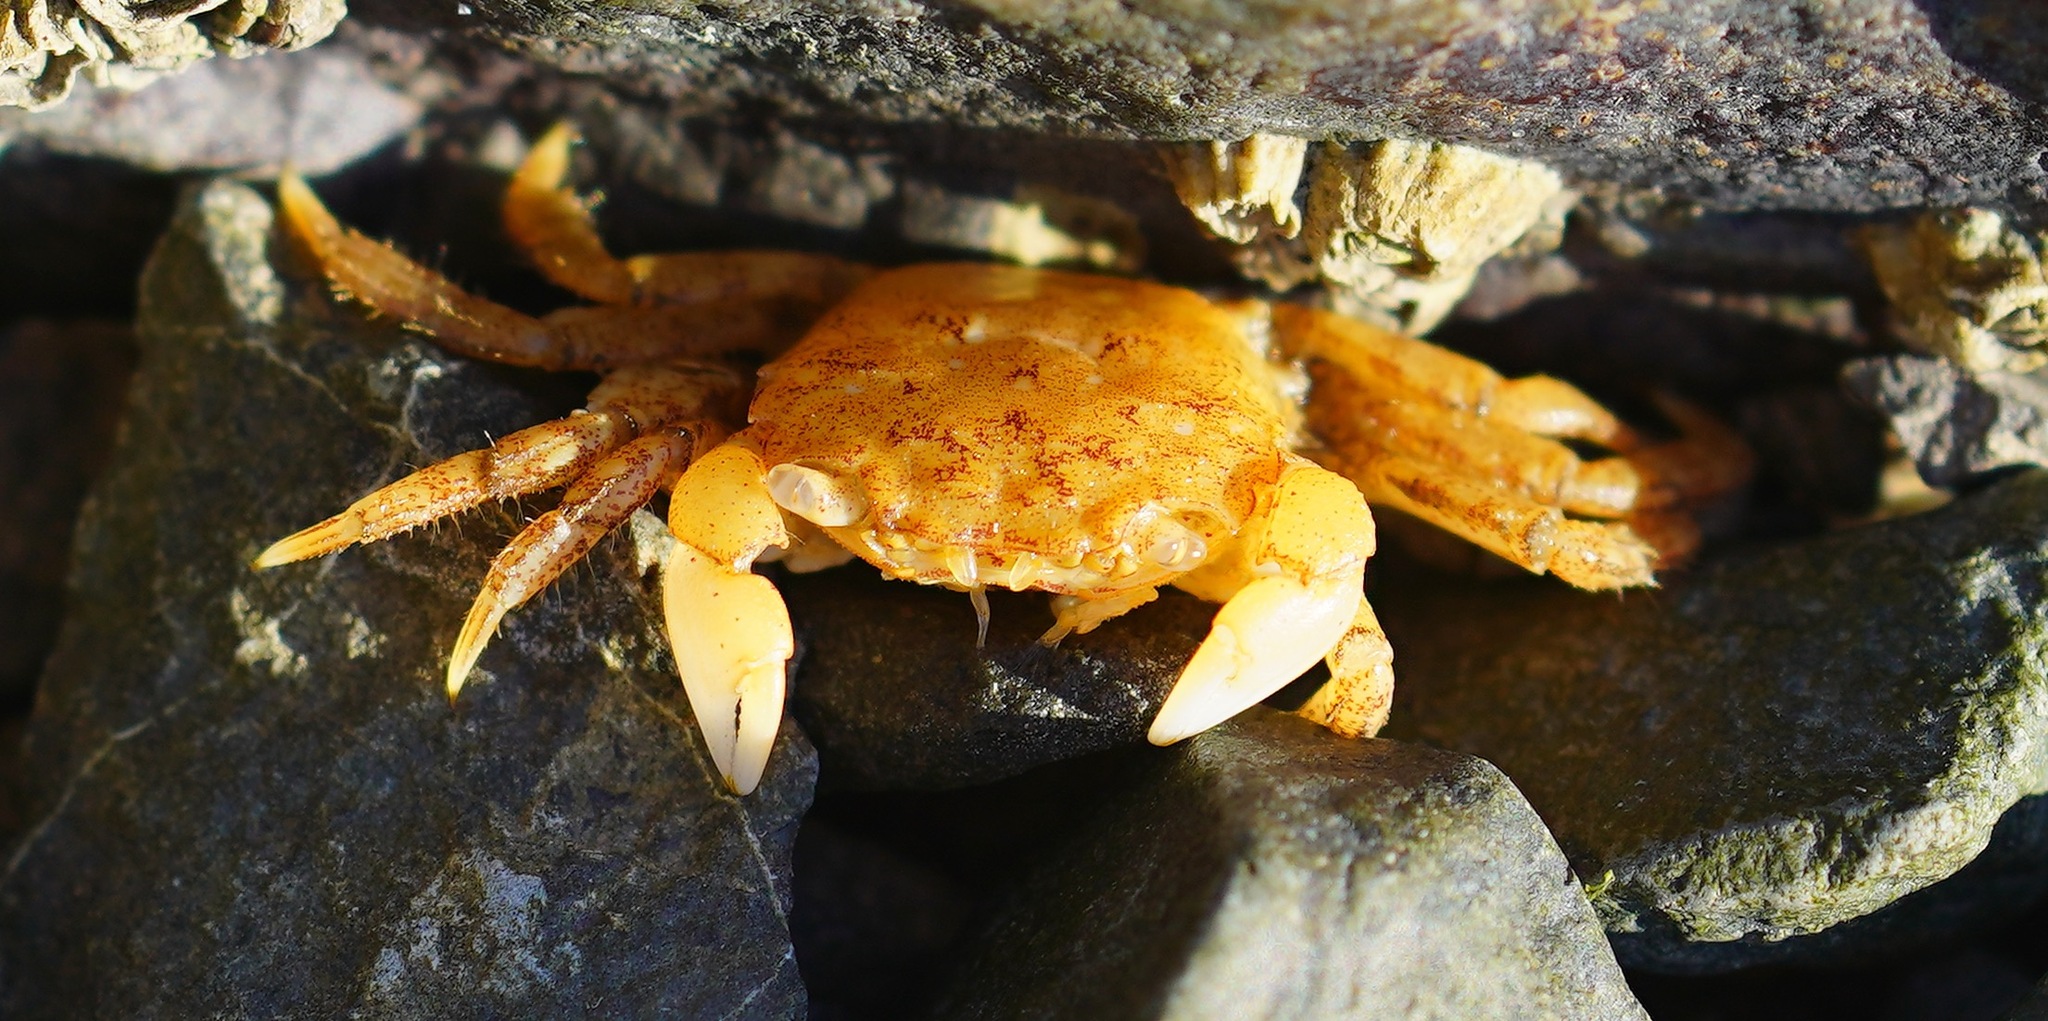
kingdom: Animalia
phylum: Arthropoda
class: Malacostraca
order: Decapoda
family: Varunidae
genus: Hemigrapsus
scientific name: Hemigrapsus oregonensis
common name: Yellow shore crab
